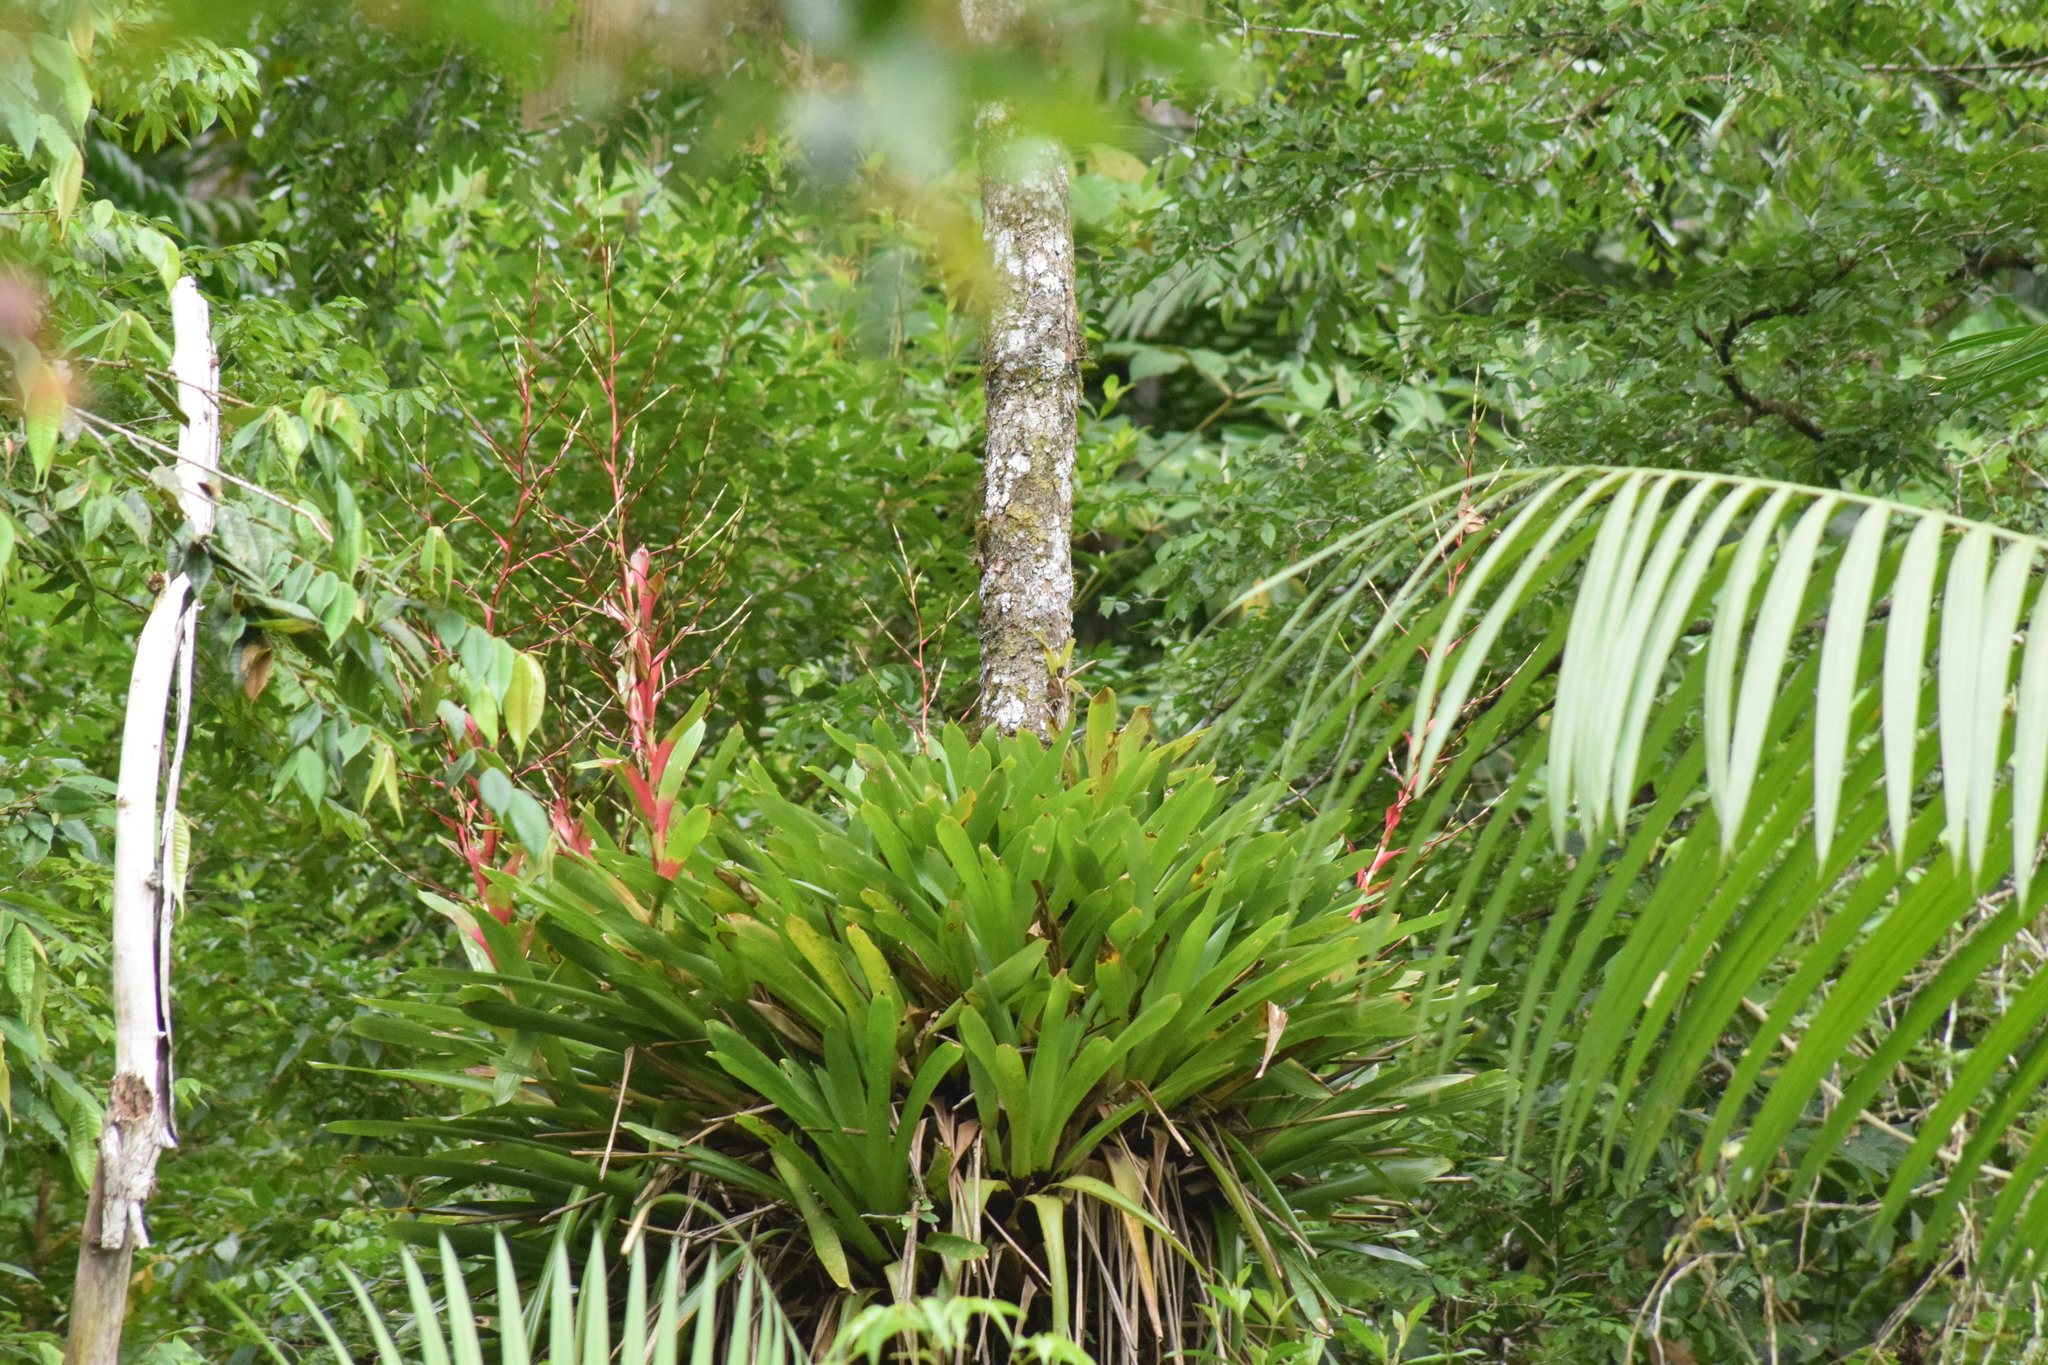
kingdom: Plantae
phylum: Tracheophyta
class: Liliopsida
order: Poales
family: Bromeliaceae
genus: Vriesea
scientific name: Vriesea philippocoburgi
